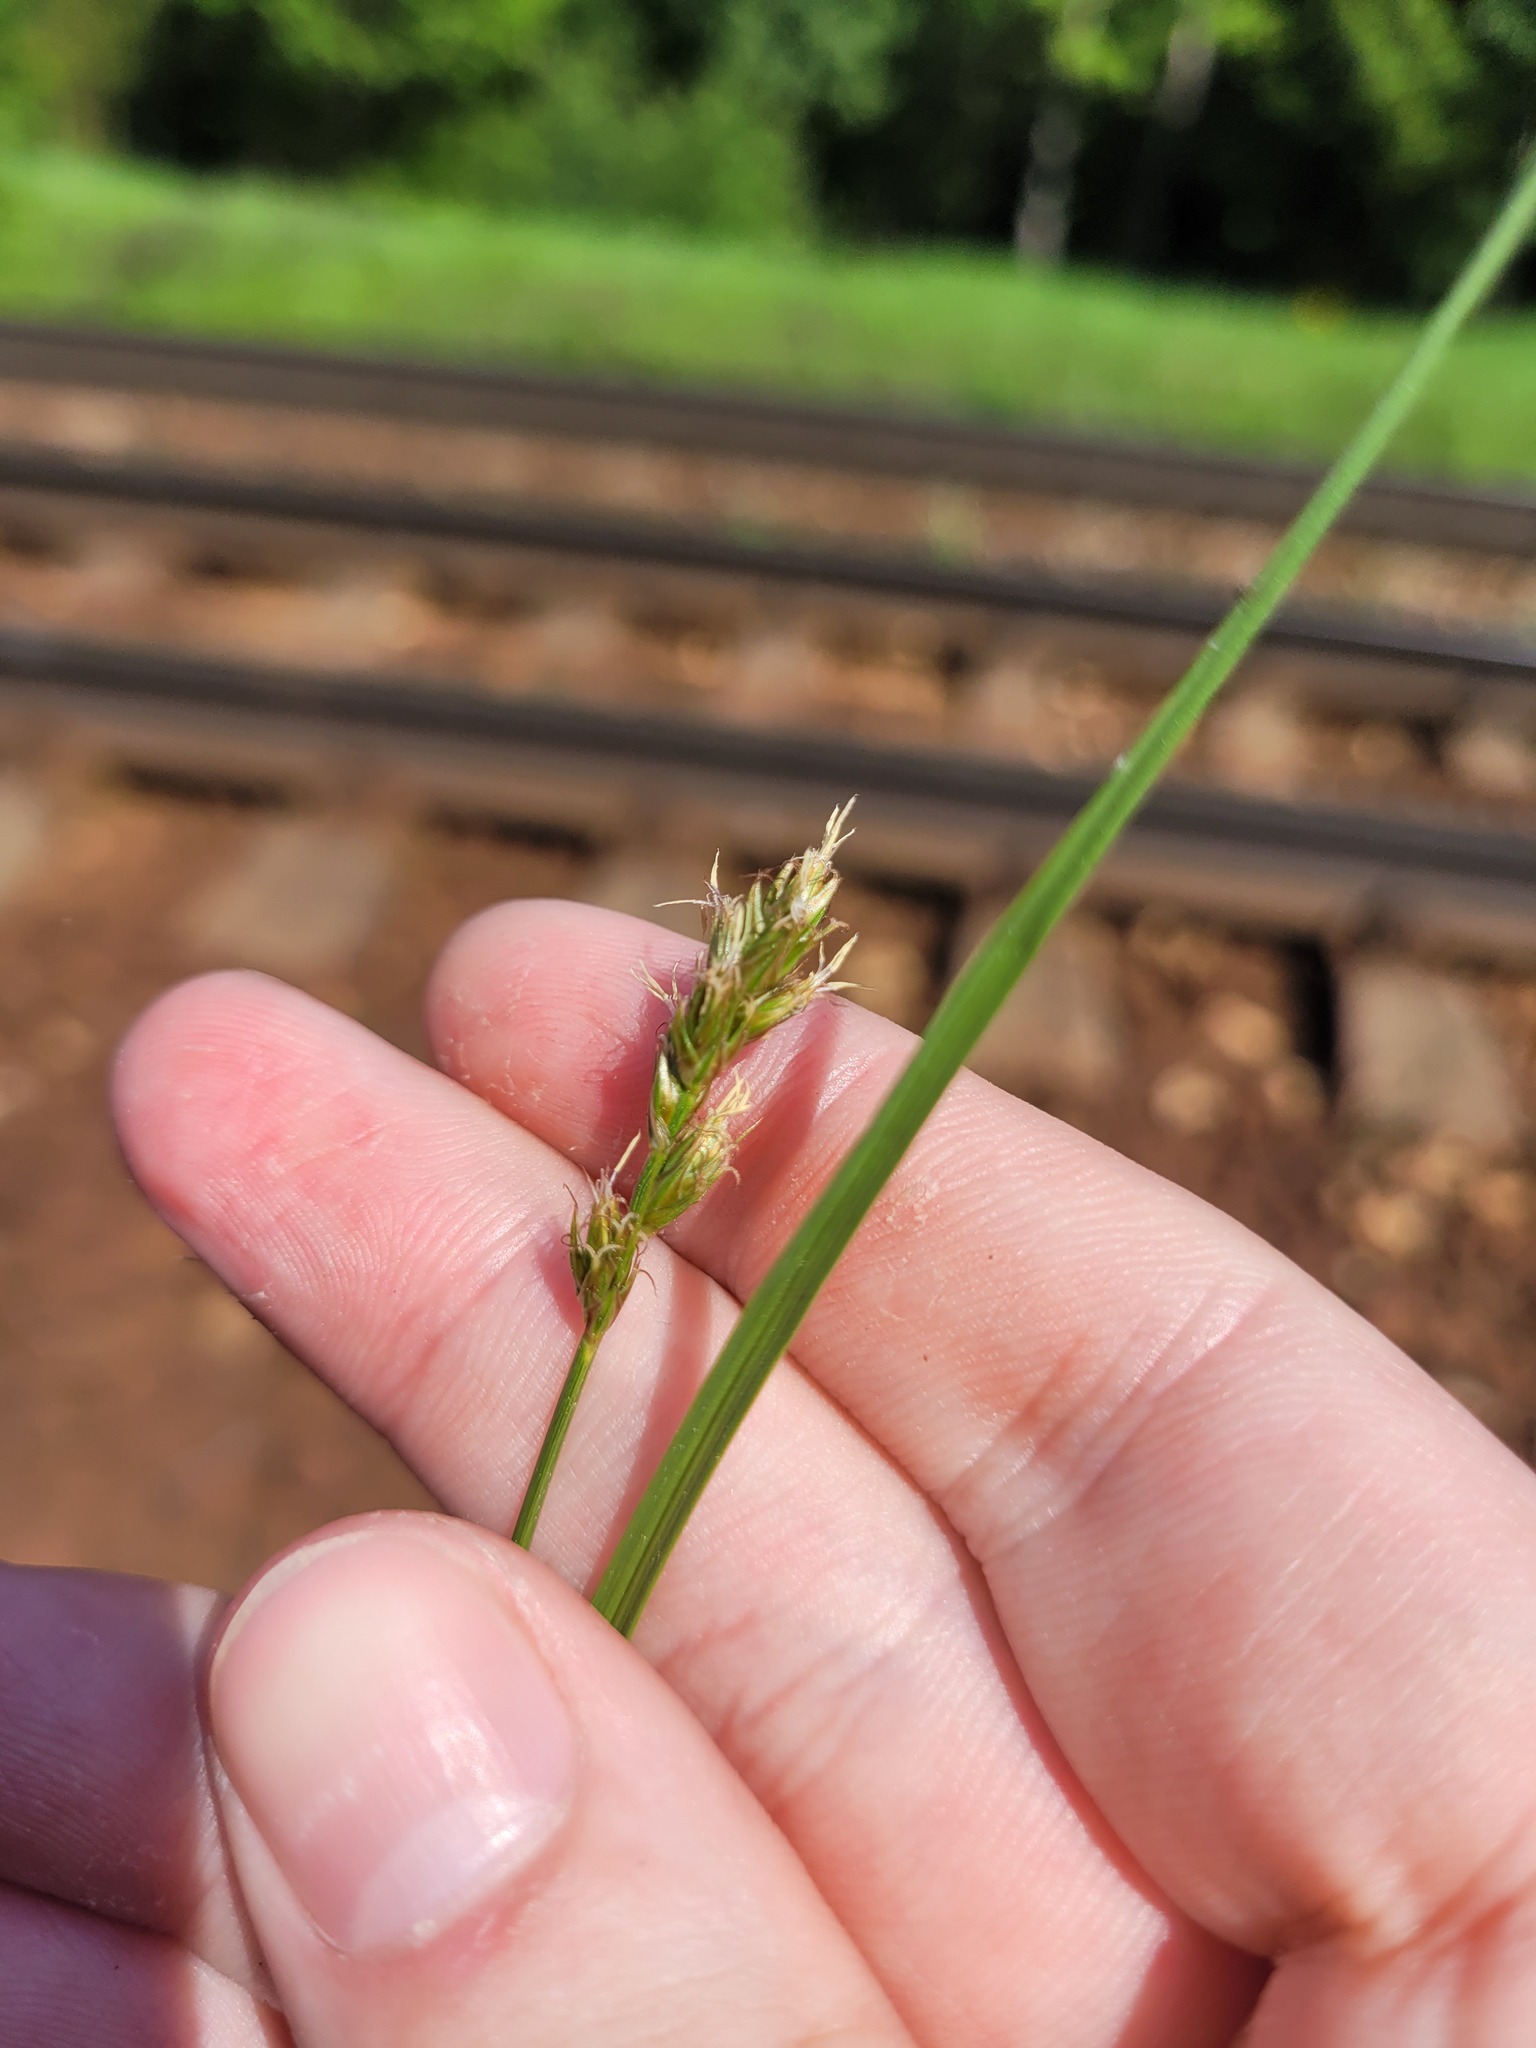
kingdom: Plantae
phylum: Tracheophyta
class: Liliopsida
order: Poales
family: Cyperaceae
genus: Carex
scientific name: Carex spicata
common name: Spiked sedge
